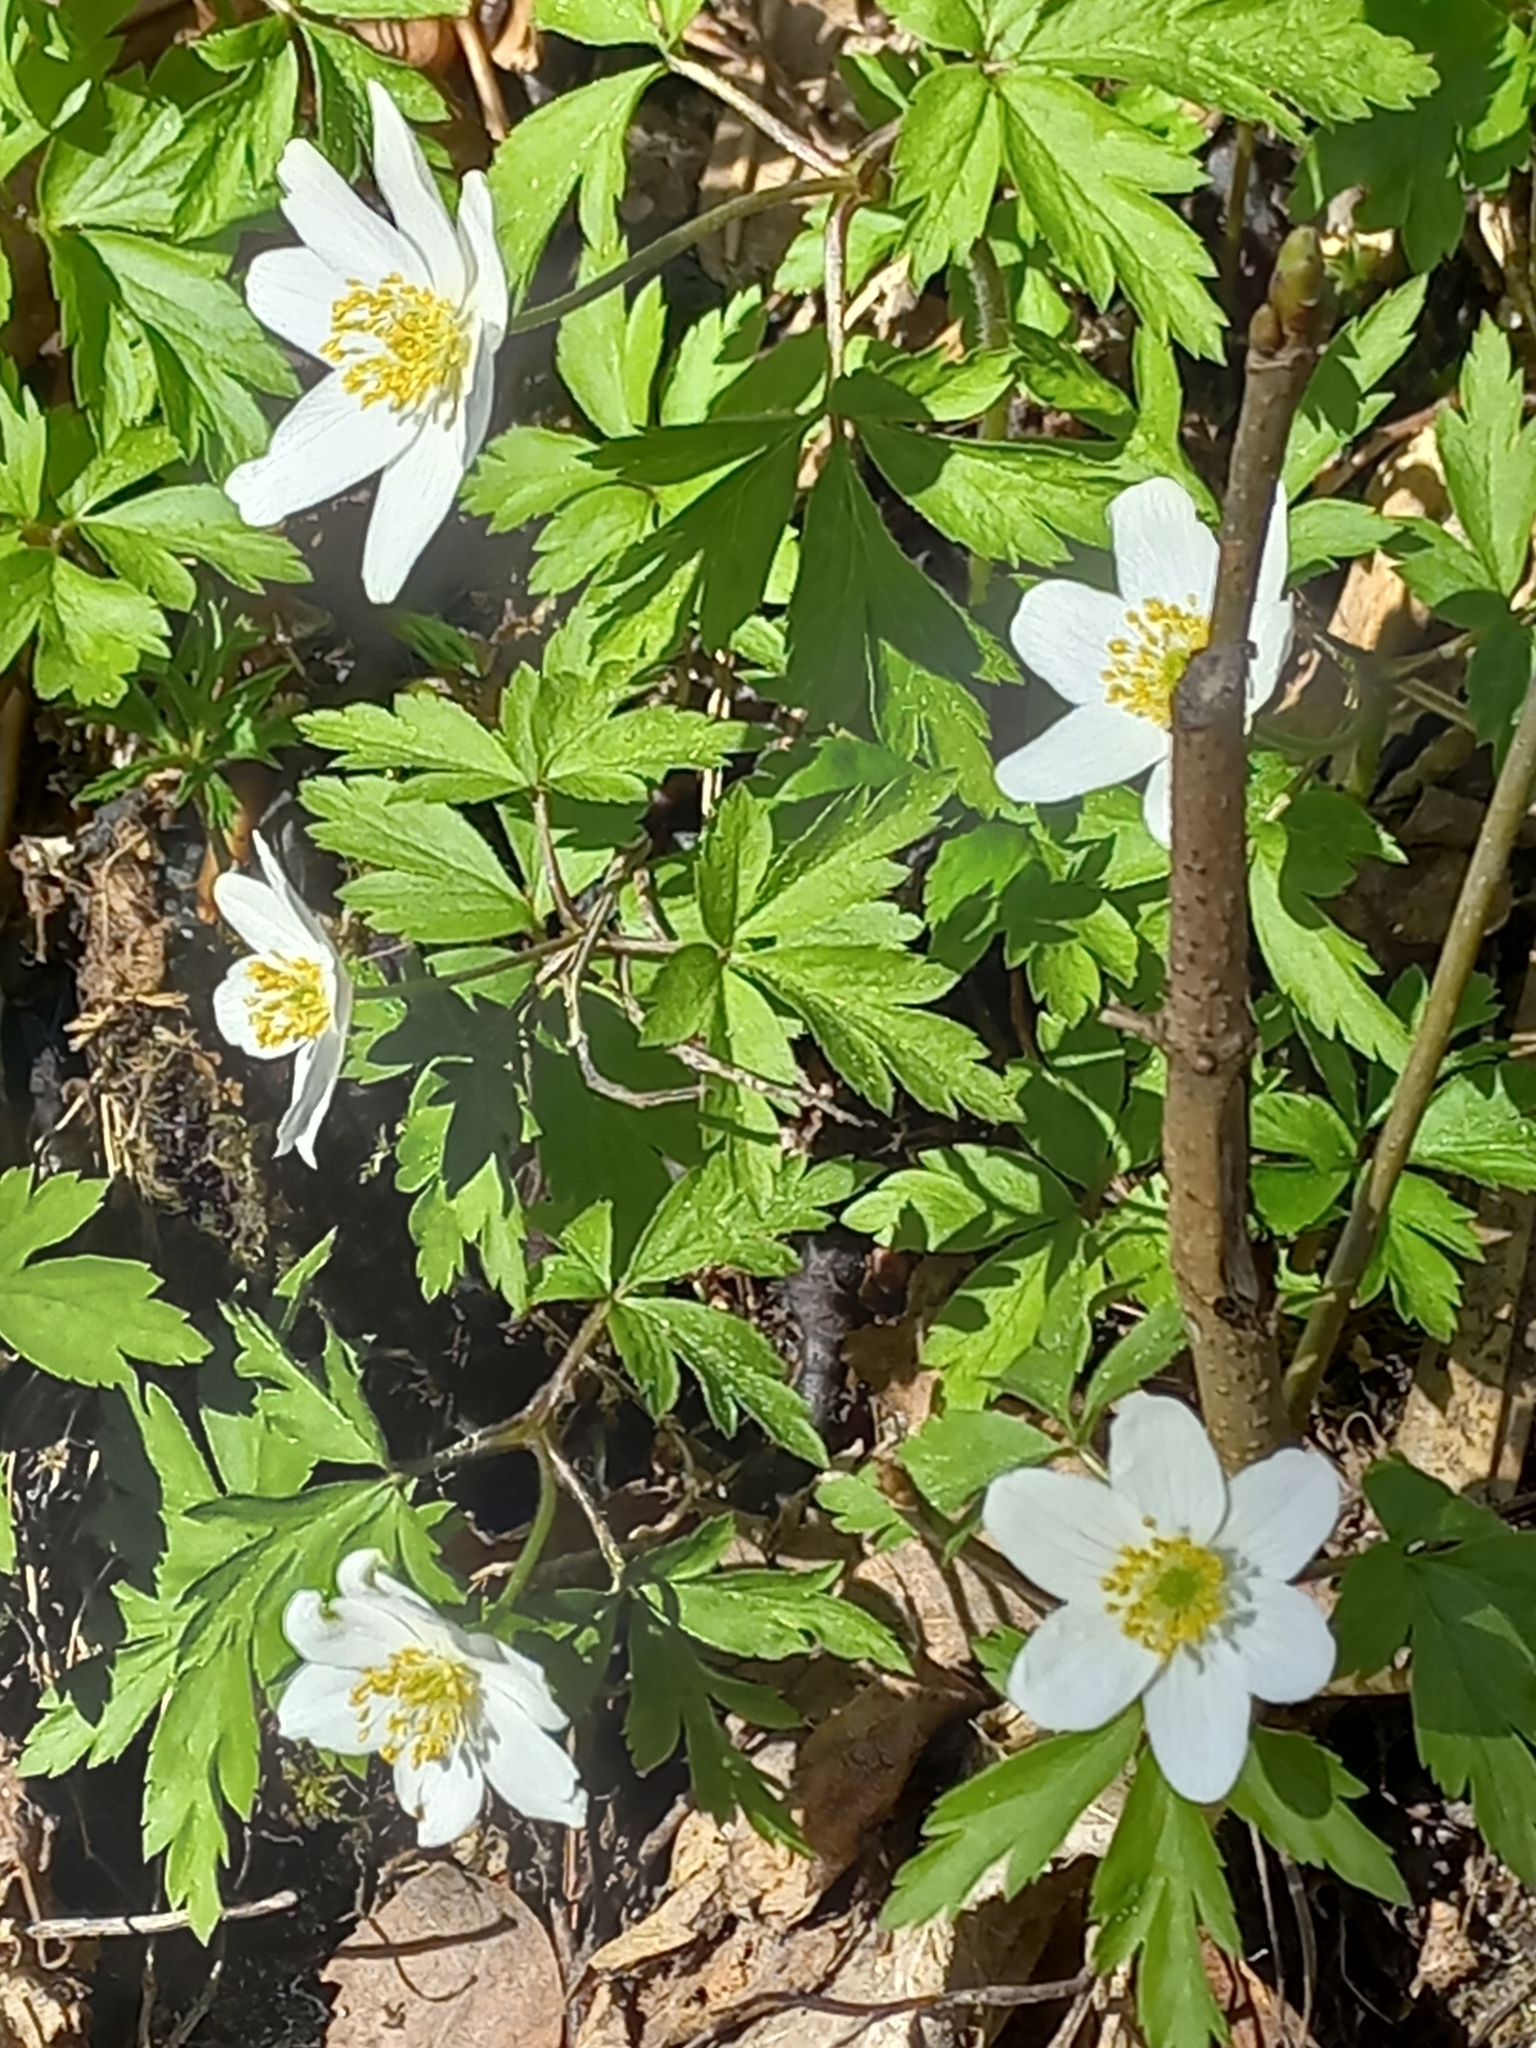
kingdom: Plantae
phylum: Tracheophyta
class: Magnoliopsida
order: Ranunculales
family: Ranunculaceae
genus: Anemone
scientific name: Anemone nemorosa
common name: Wood anemone
